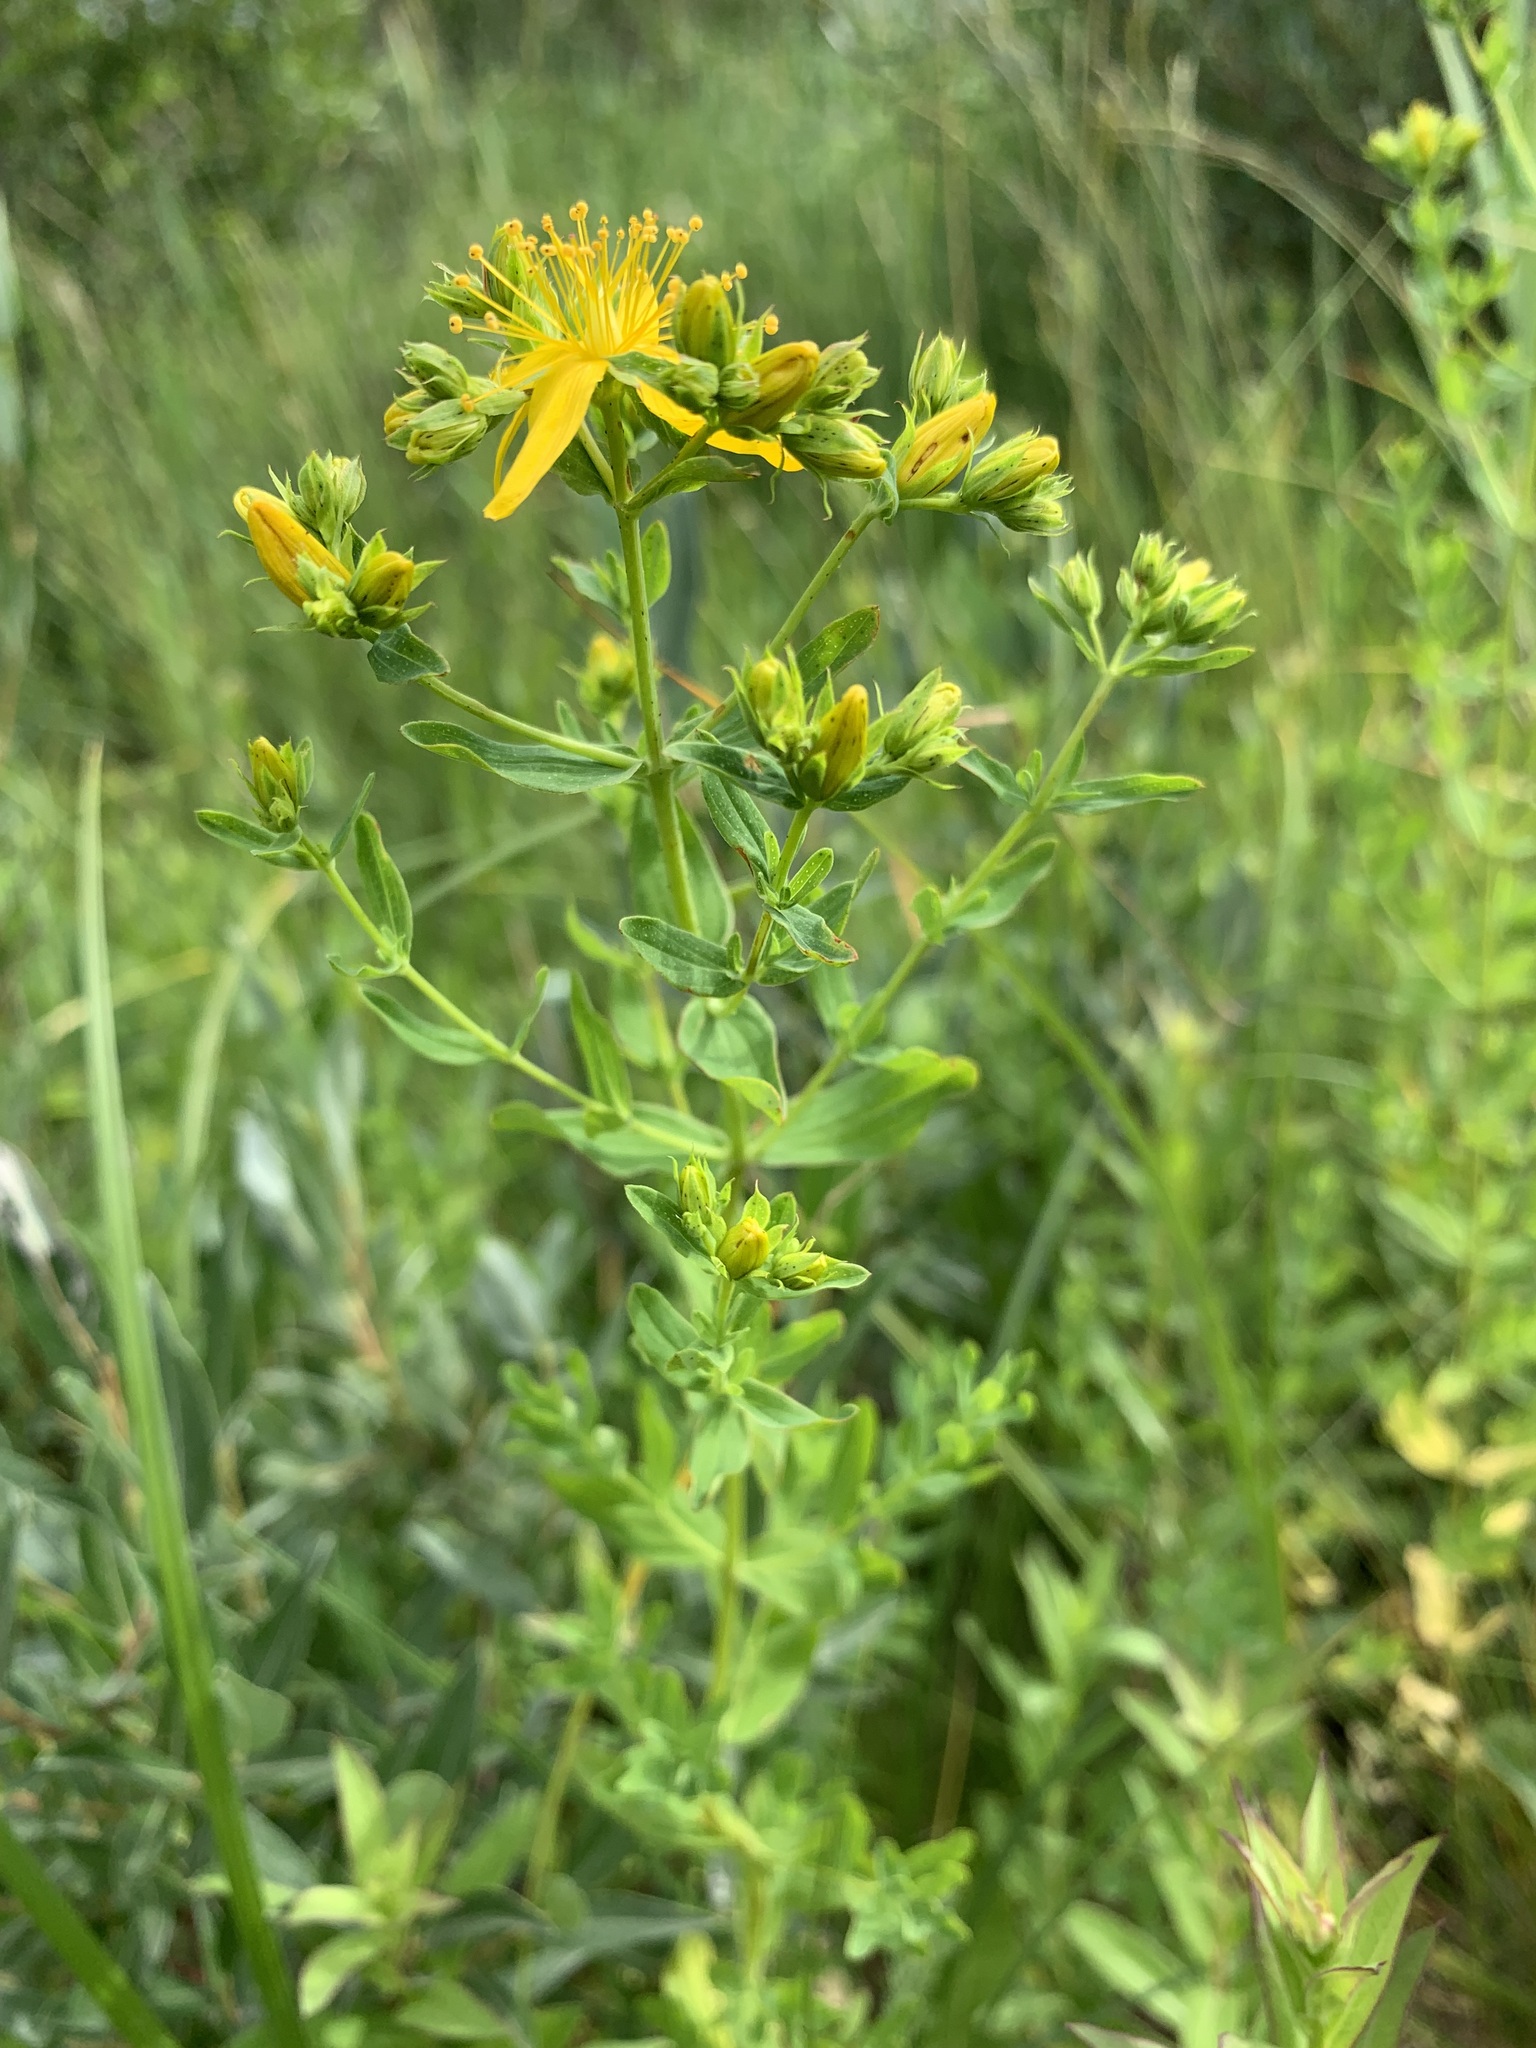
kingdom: Plantae
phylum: Tracheophyta
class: Magnoliopsida
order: Malpighiales
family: Hypericaceae
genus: Hypericum
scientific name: Hypericum perforatum
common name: Common st. johnswort
